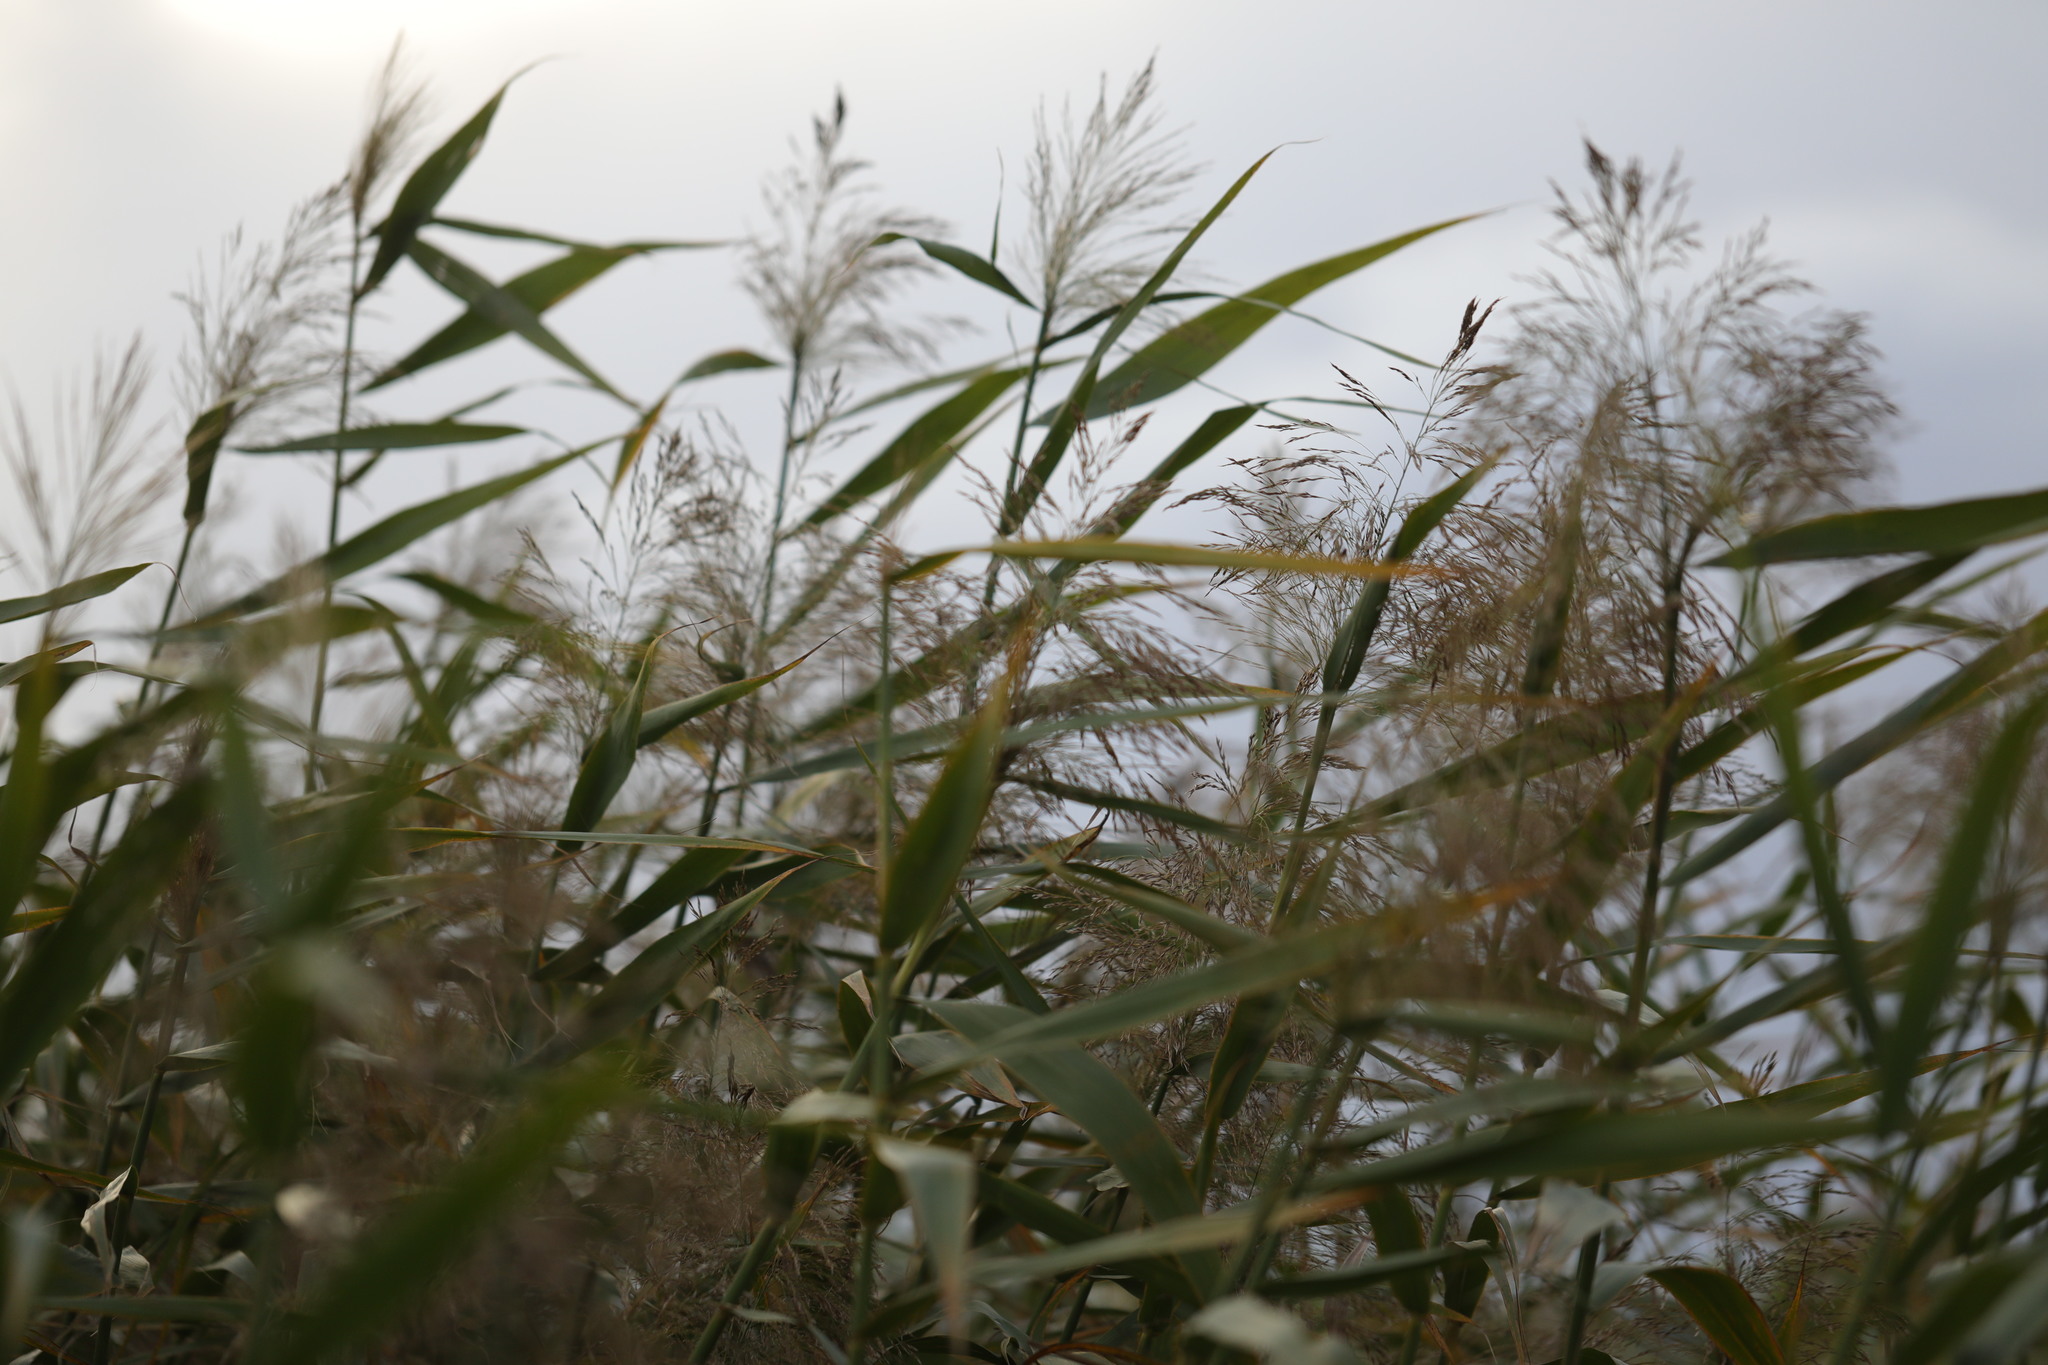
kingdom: Plantae
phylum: Tracheophyta
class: Liliopsida
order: Poales
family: Poaceae
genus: Phragmites
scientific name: Phragmites australis
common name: Common reed
